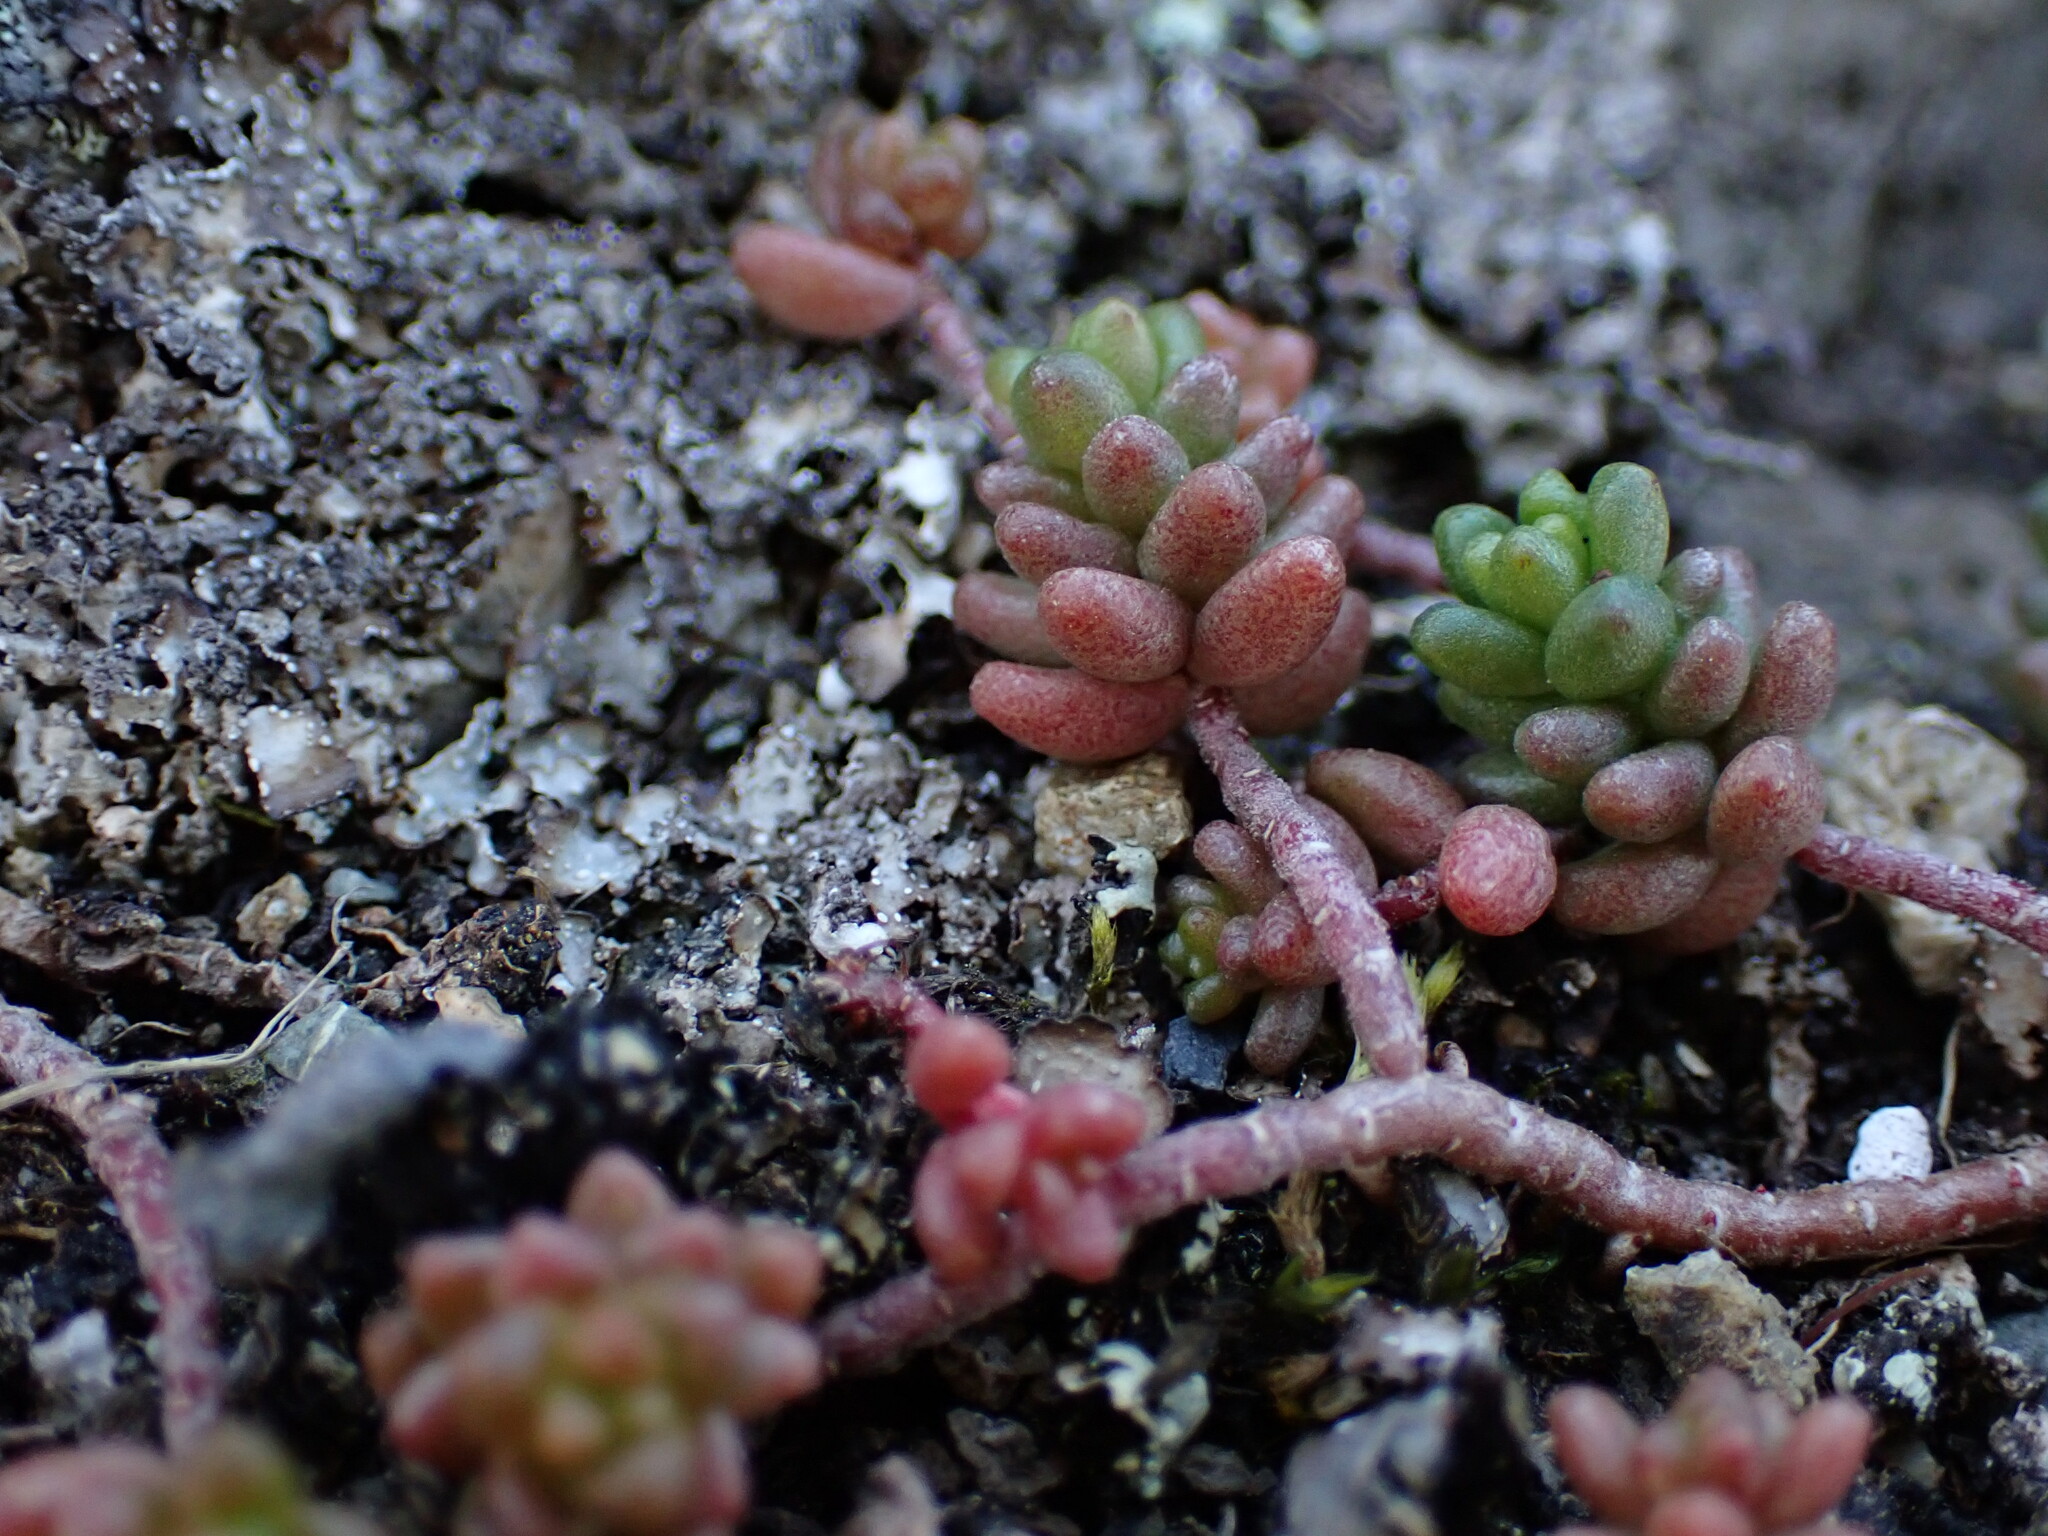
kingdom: Plantae
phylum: Tracheophyta
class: Magnoliopsida
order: Saxifragales
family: Crassulaceae
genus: Sedum
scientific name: Sedum album
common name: White stonecrop
